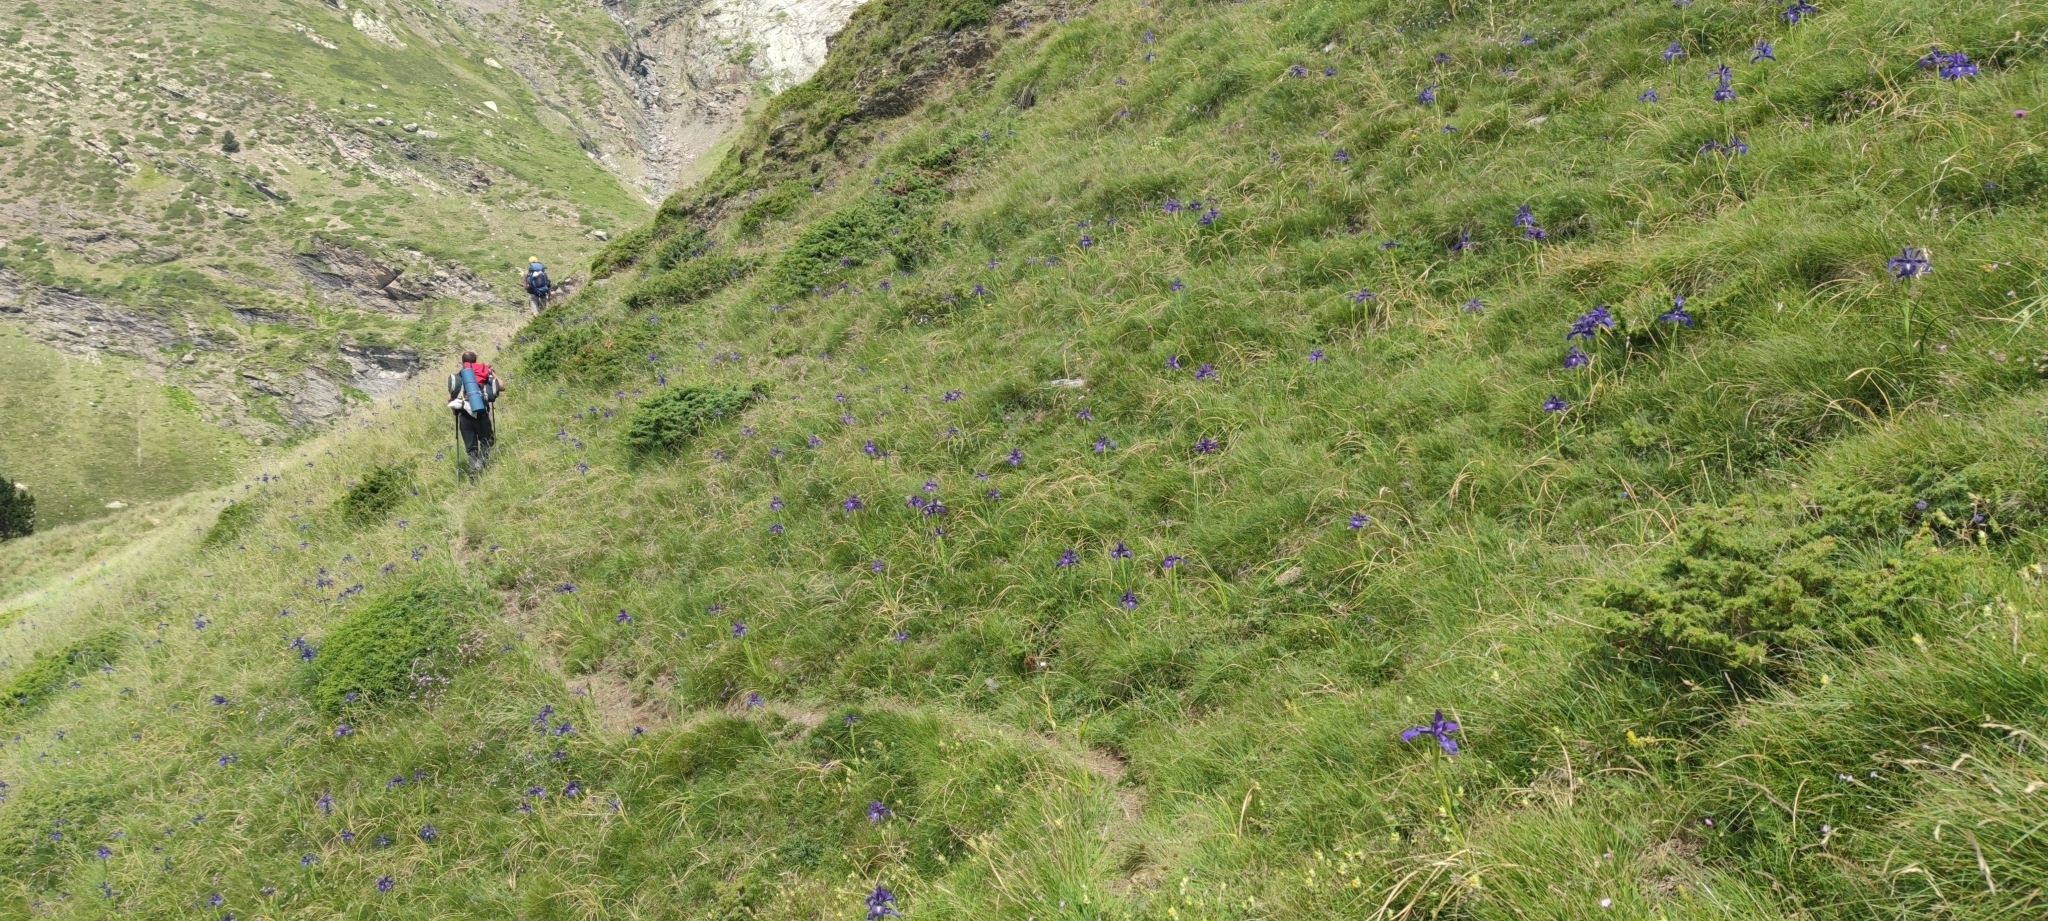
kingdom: Plantae
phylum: Tracheophyta
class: Liliopsida
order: Asparagales
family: Iridaceae
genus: Iris
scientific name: Iris
